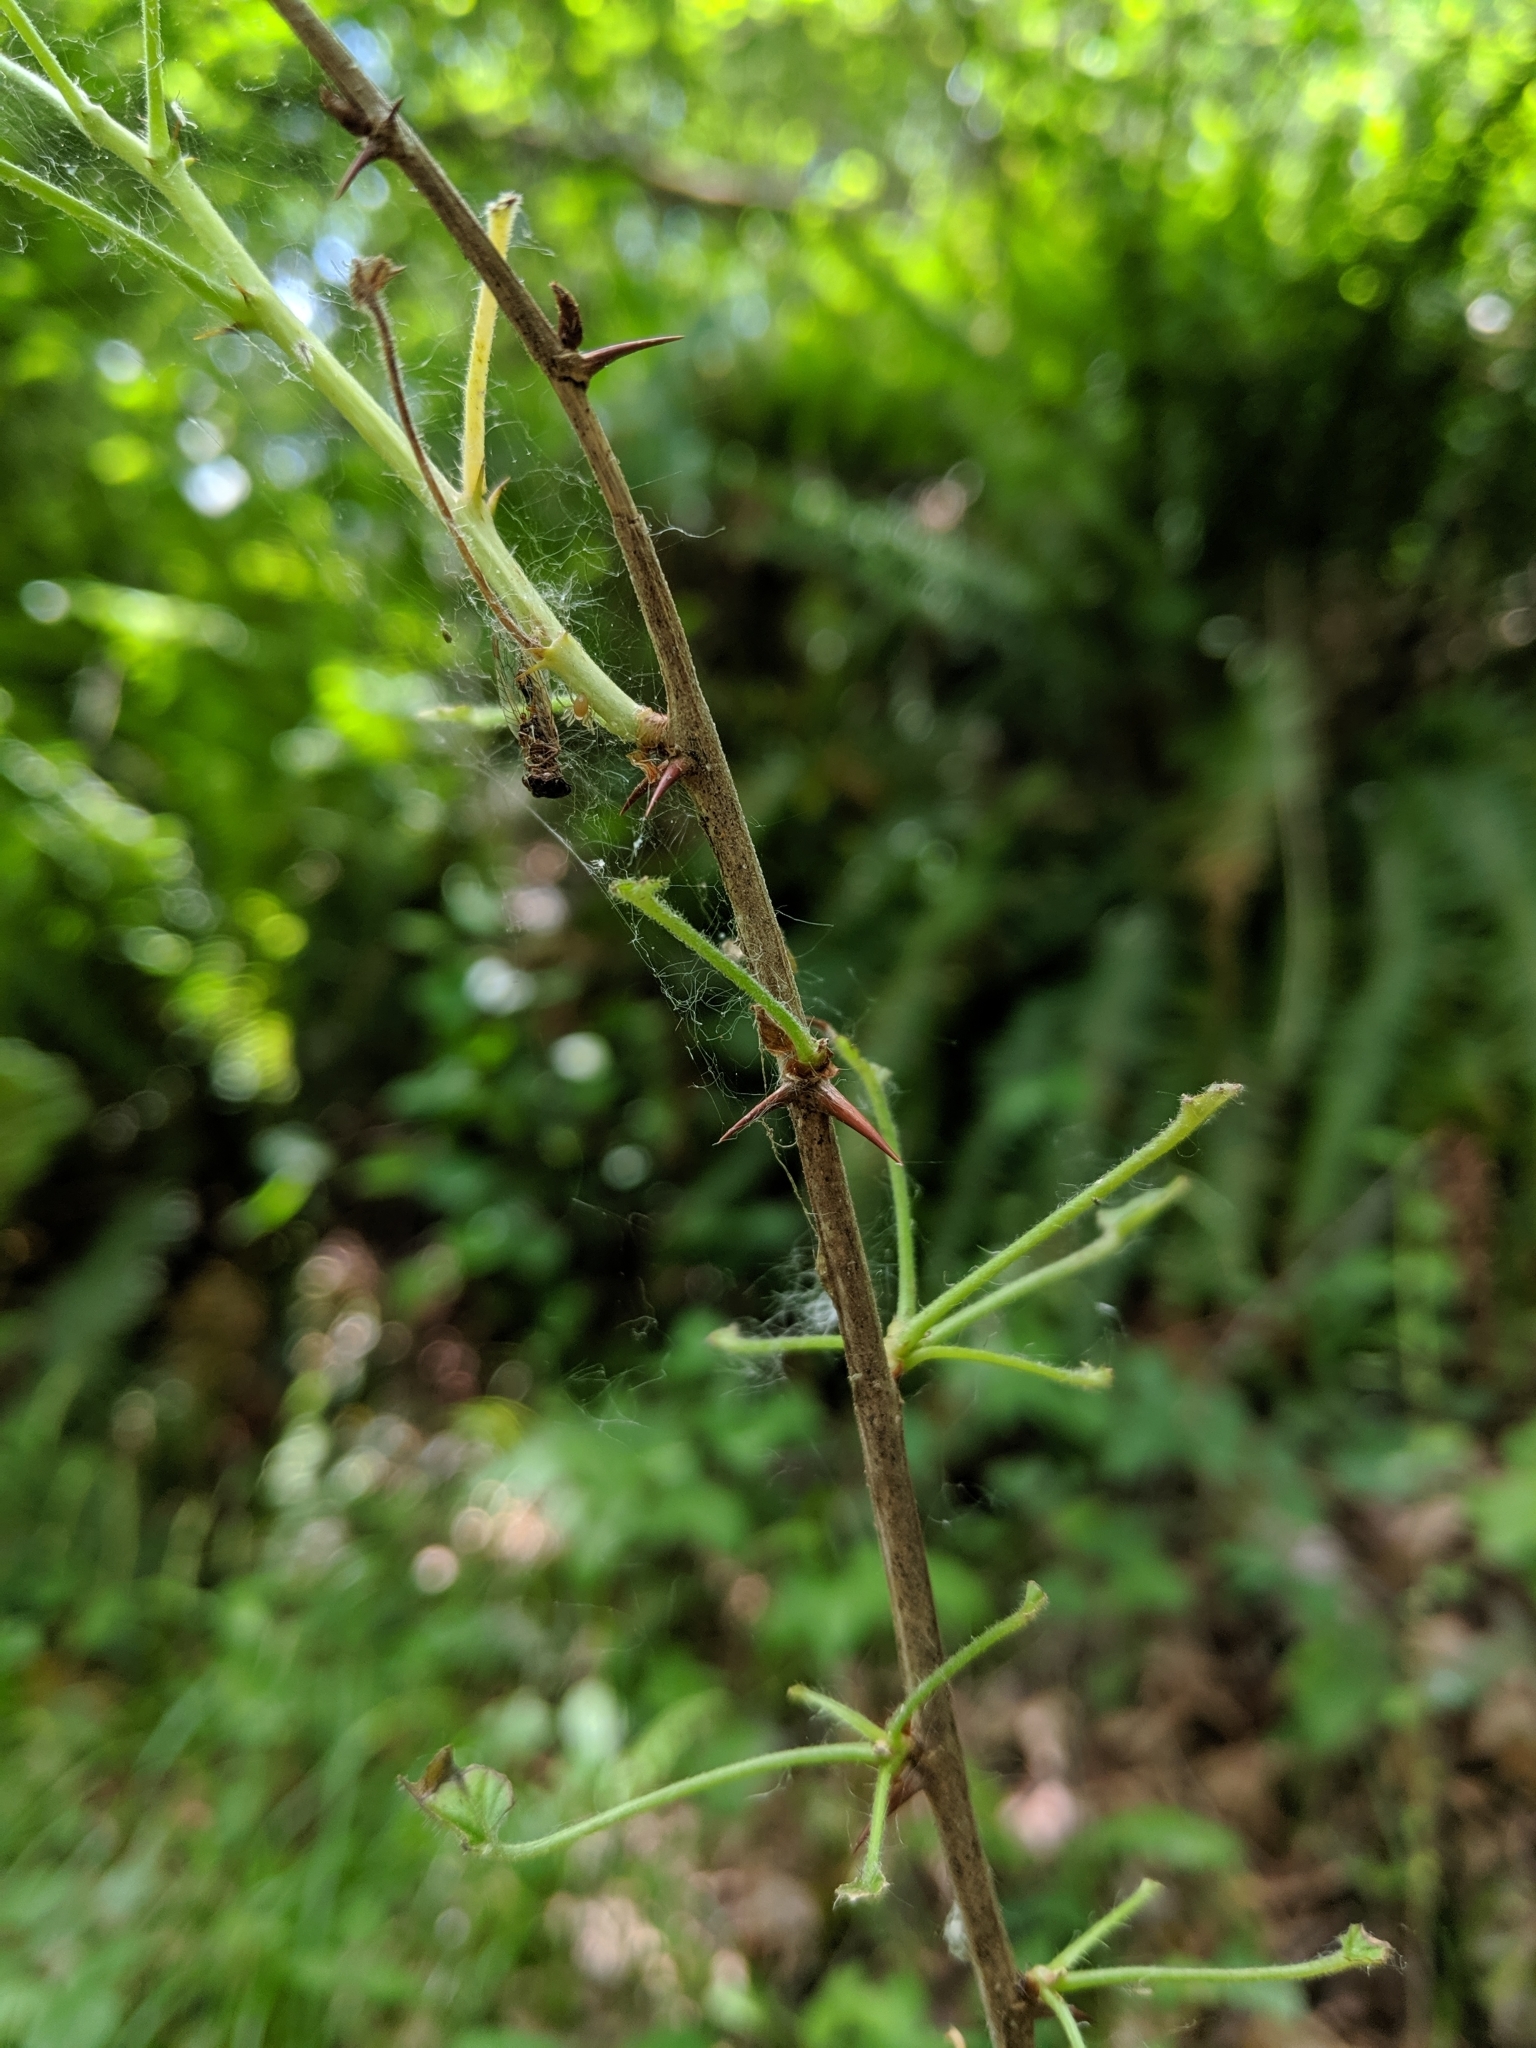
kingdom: Plantae
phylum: Tracheophyta
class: Magnoliopsida
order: Saxifragales
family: Grossulariaceae
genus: Ribes
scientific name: Ribes divaricatum
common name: Wild black gooseberry
